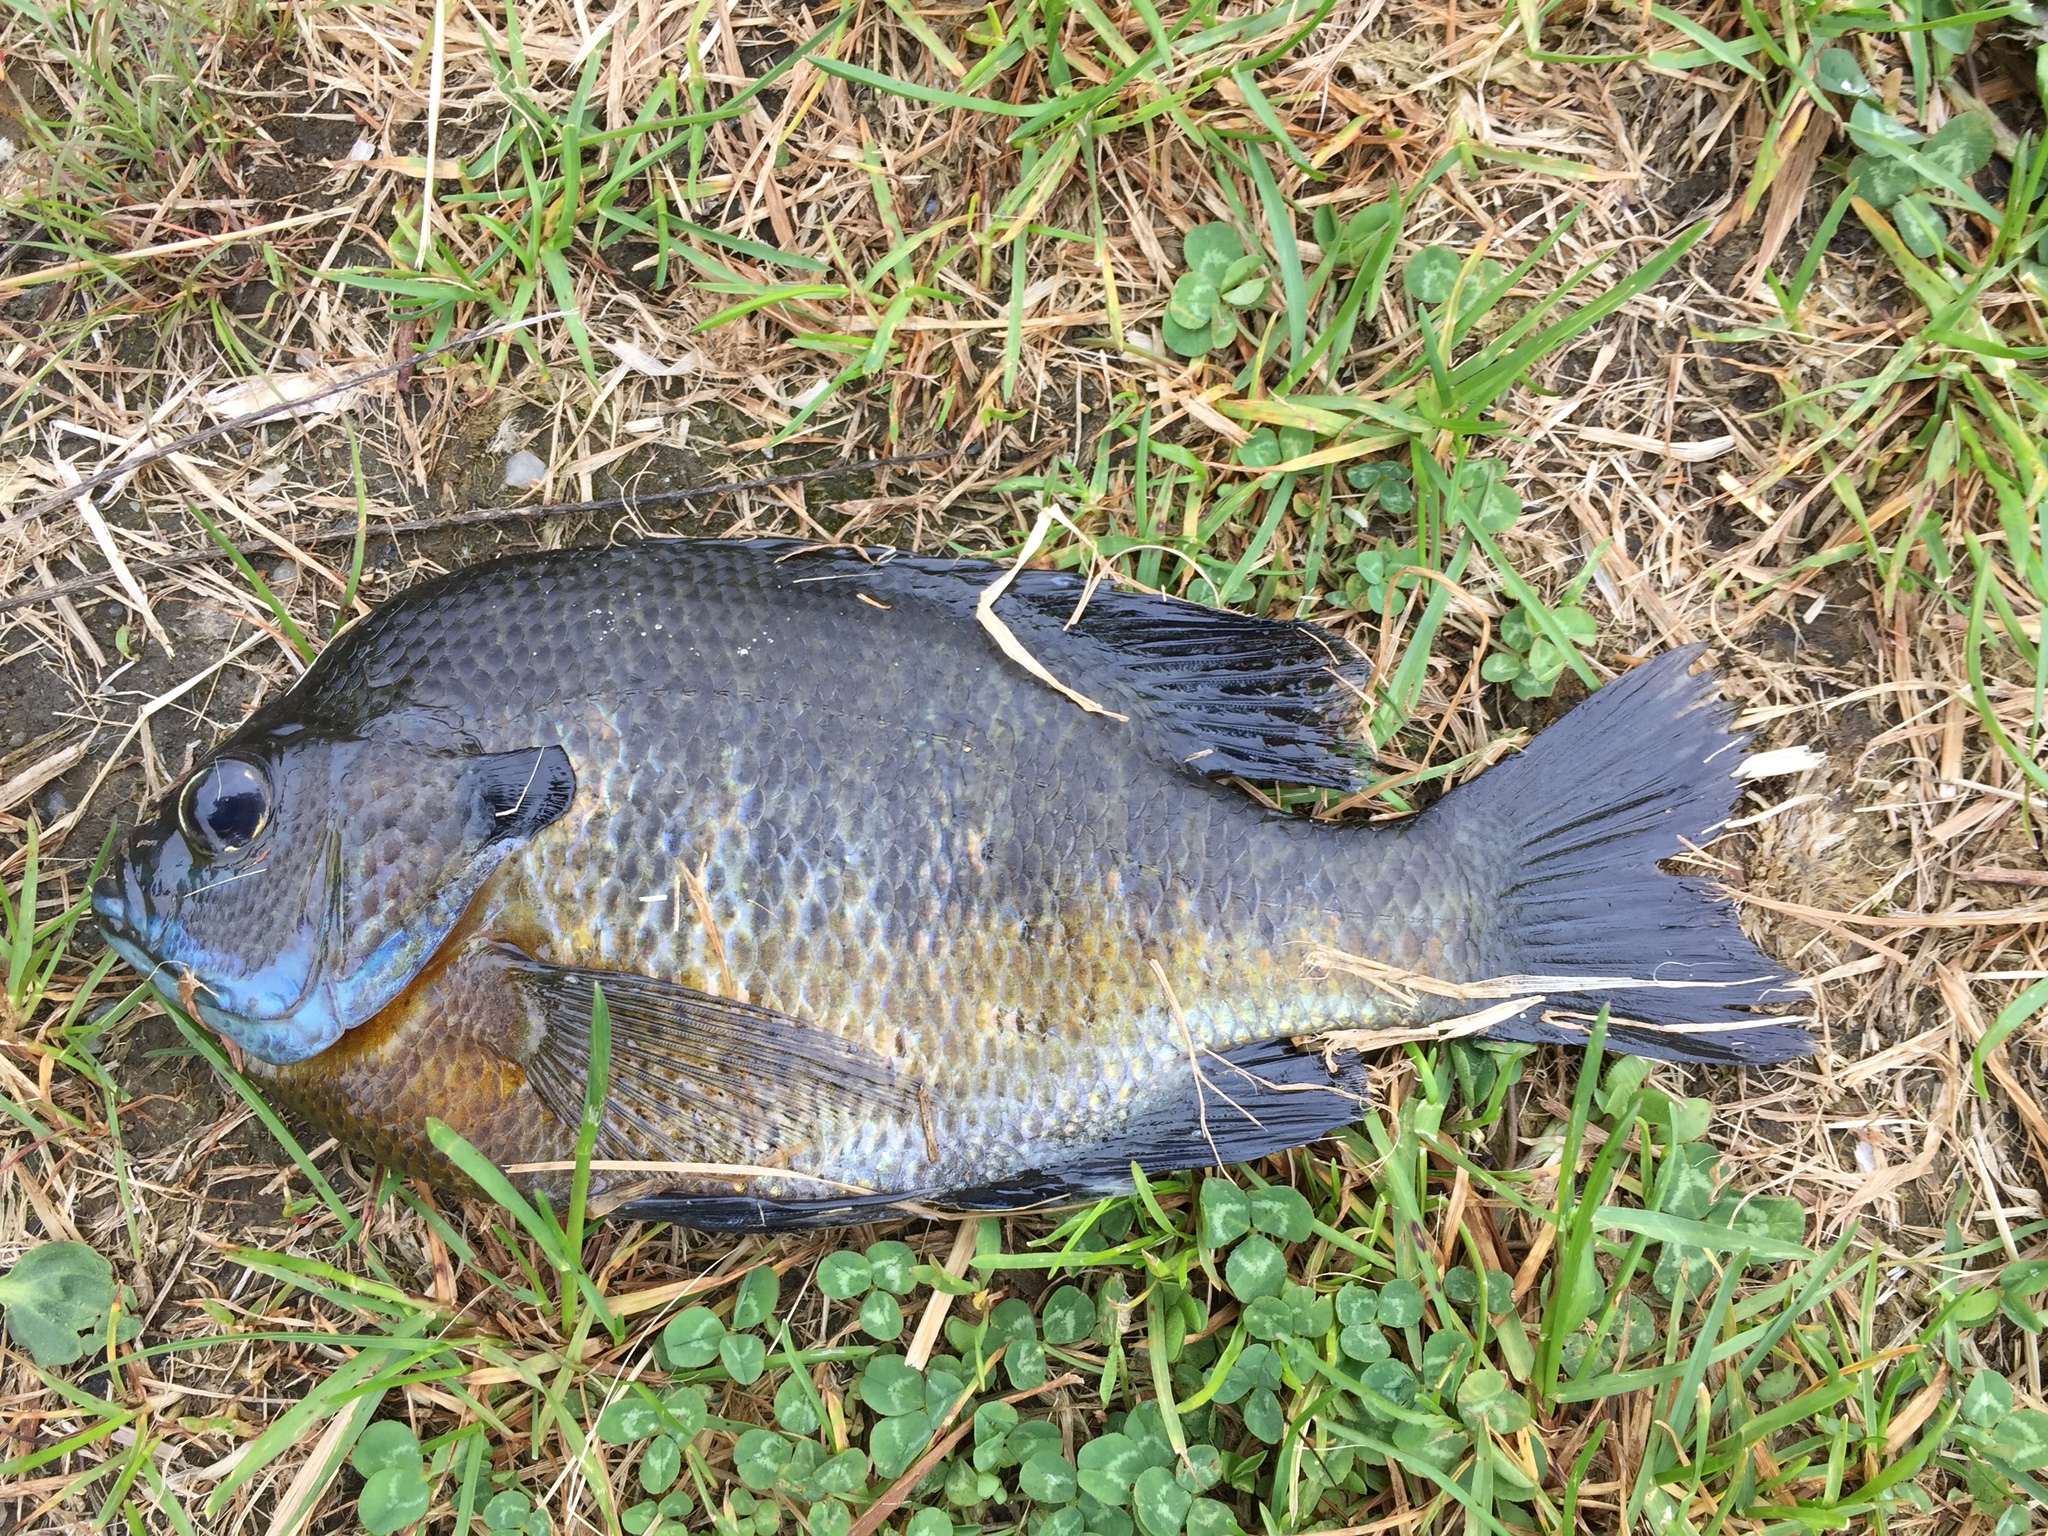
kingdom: Animalia
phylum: Chordata
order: Perciformes
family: Centrarchidae
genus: Lepomis
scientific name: Lepomis macrochirus
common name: Bluegill
